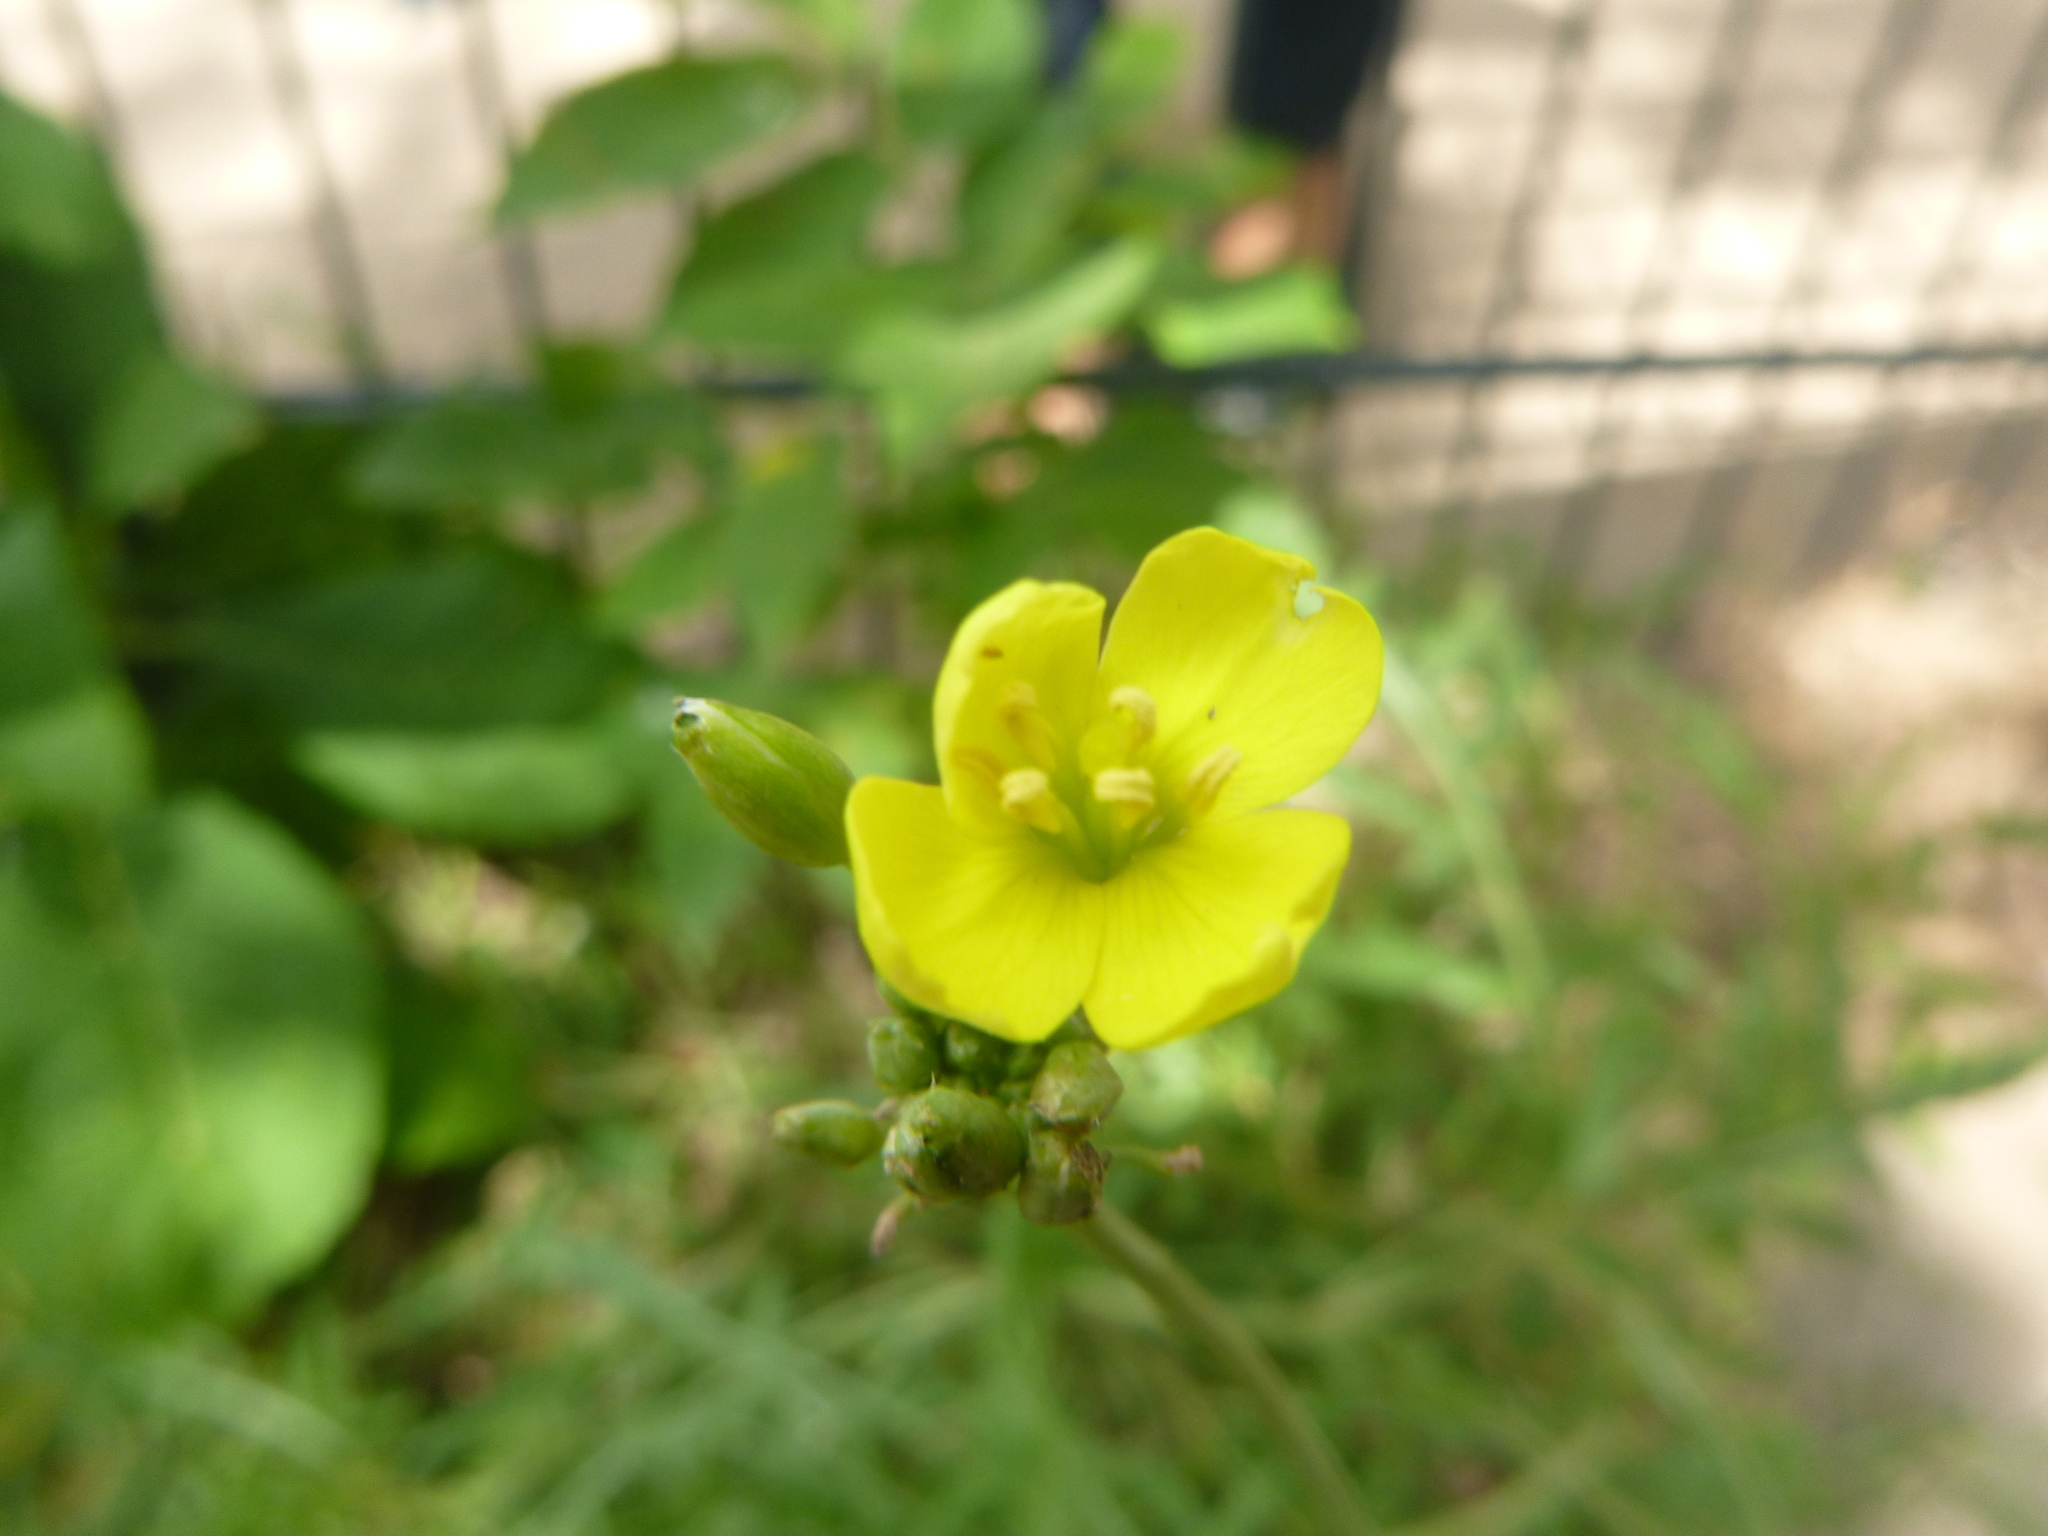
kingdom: Plantae
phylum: Tracheophyta
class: Magnoliopsida
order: Brassicales
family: Brassicaceae
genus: Diplotaxis
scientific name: Diplotaxis tenuifolia
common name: Perennial wall-rocket
